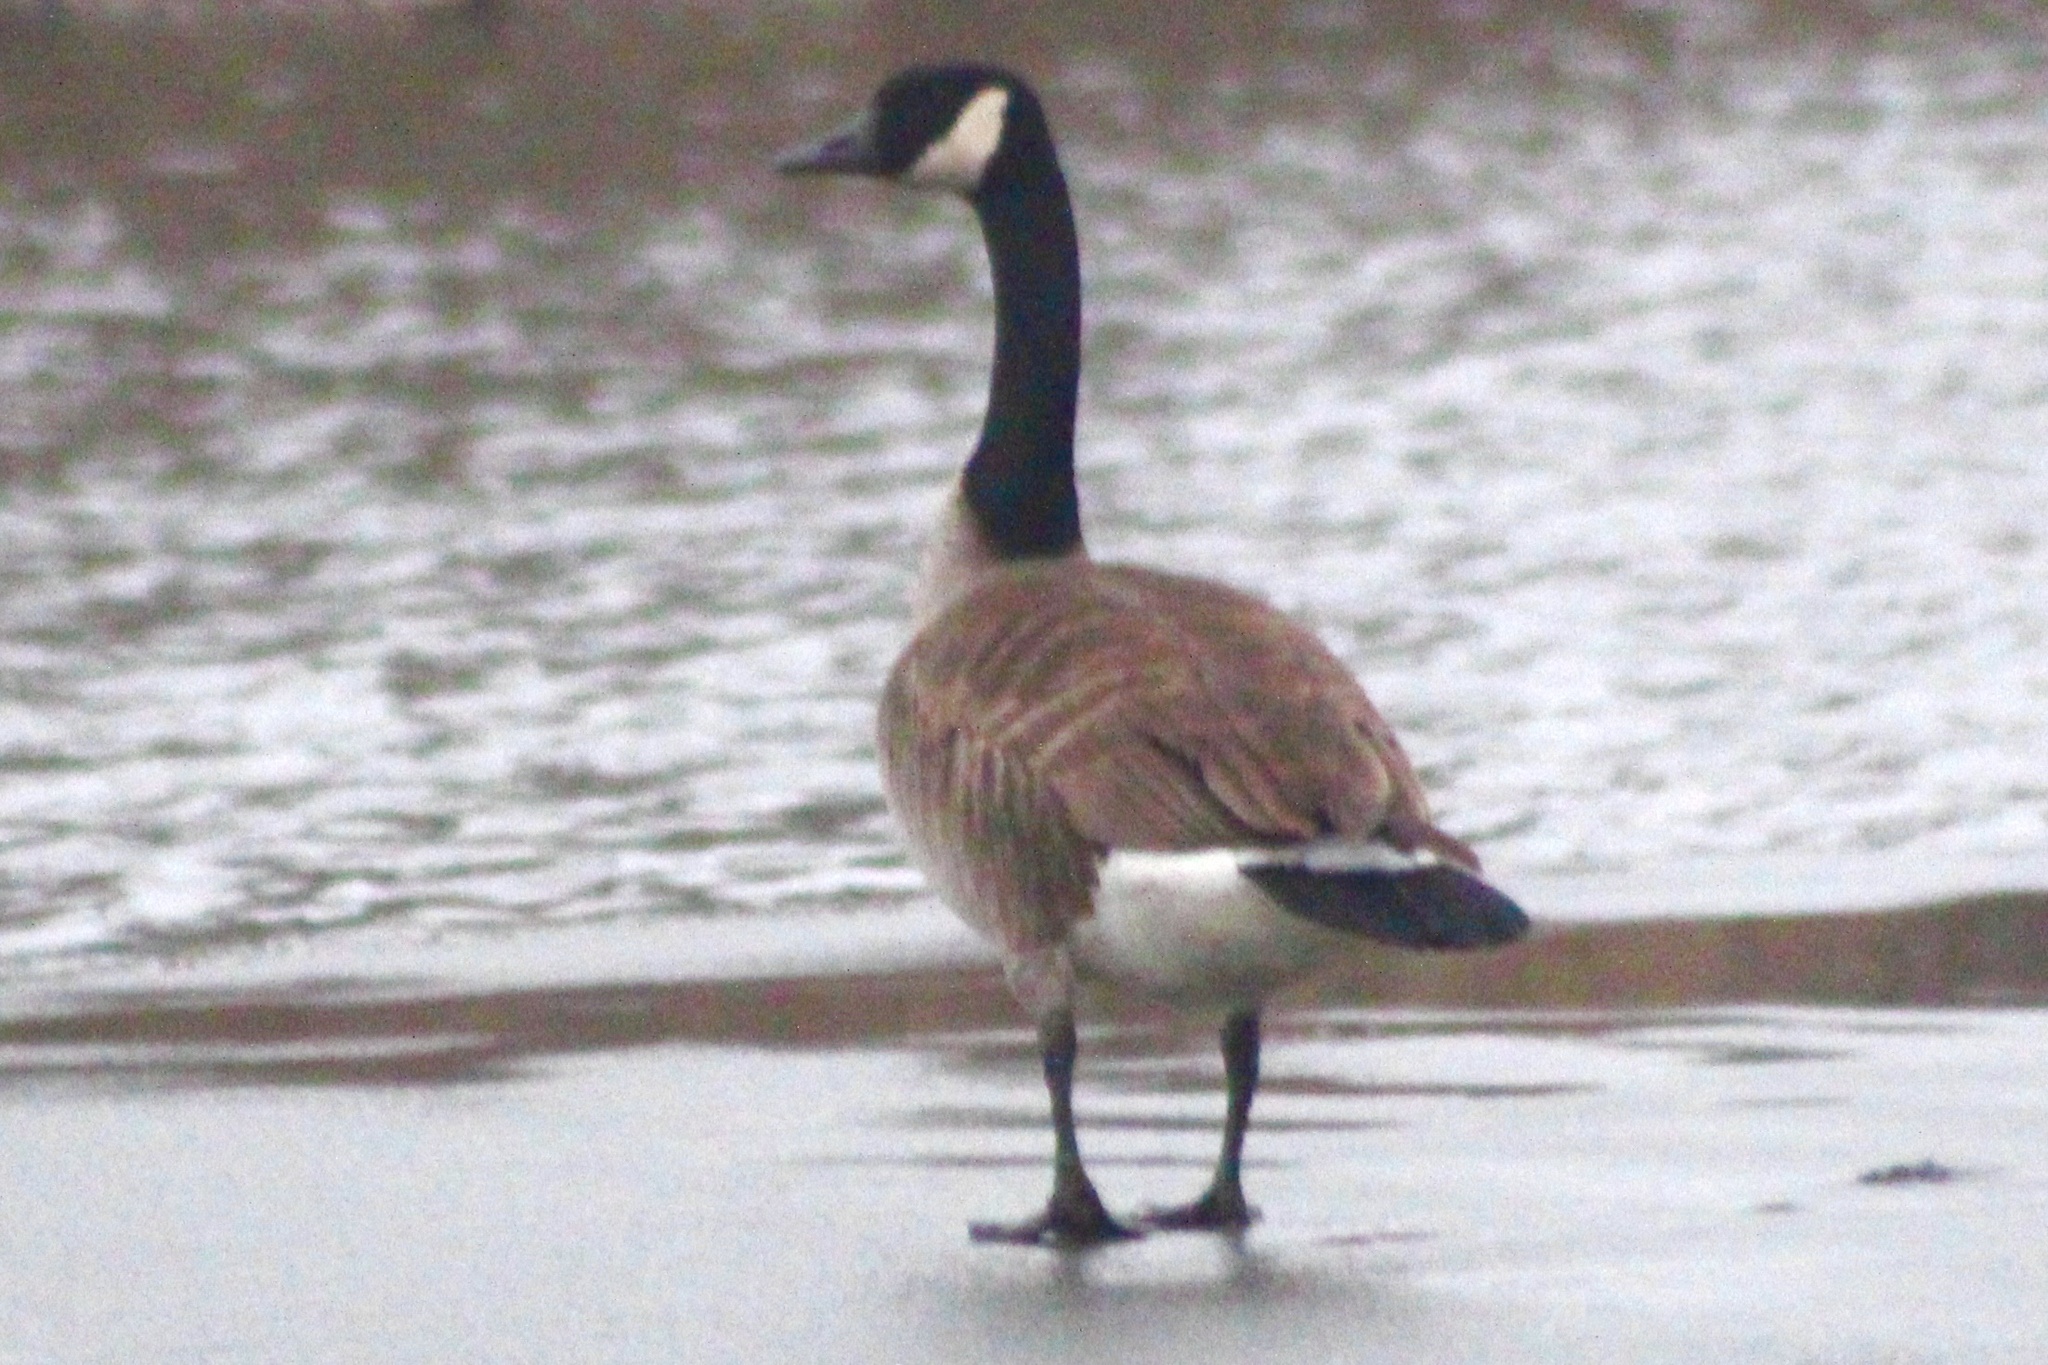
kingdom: Animalia
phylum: Chordata
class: Aves
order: Anseriformes
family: Anatidae
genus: Branta
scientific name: Branta canadensis
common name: Canada goose
